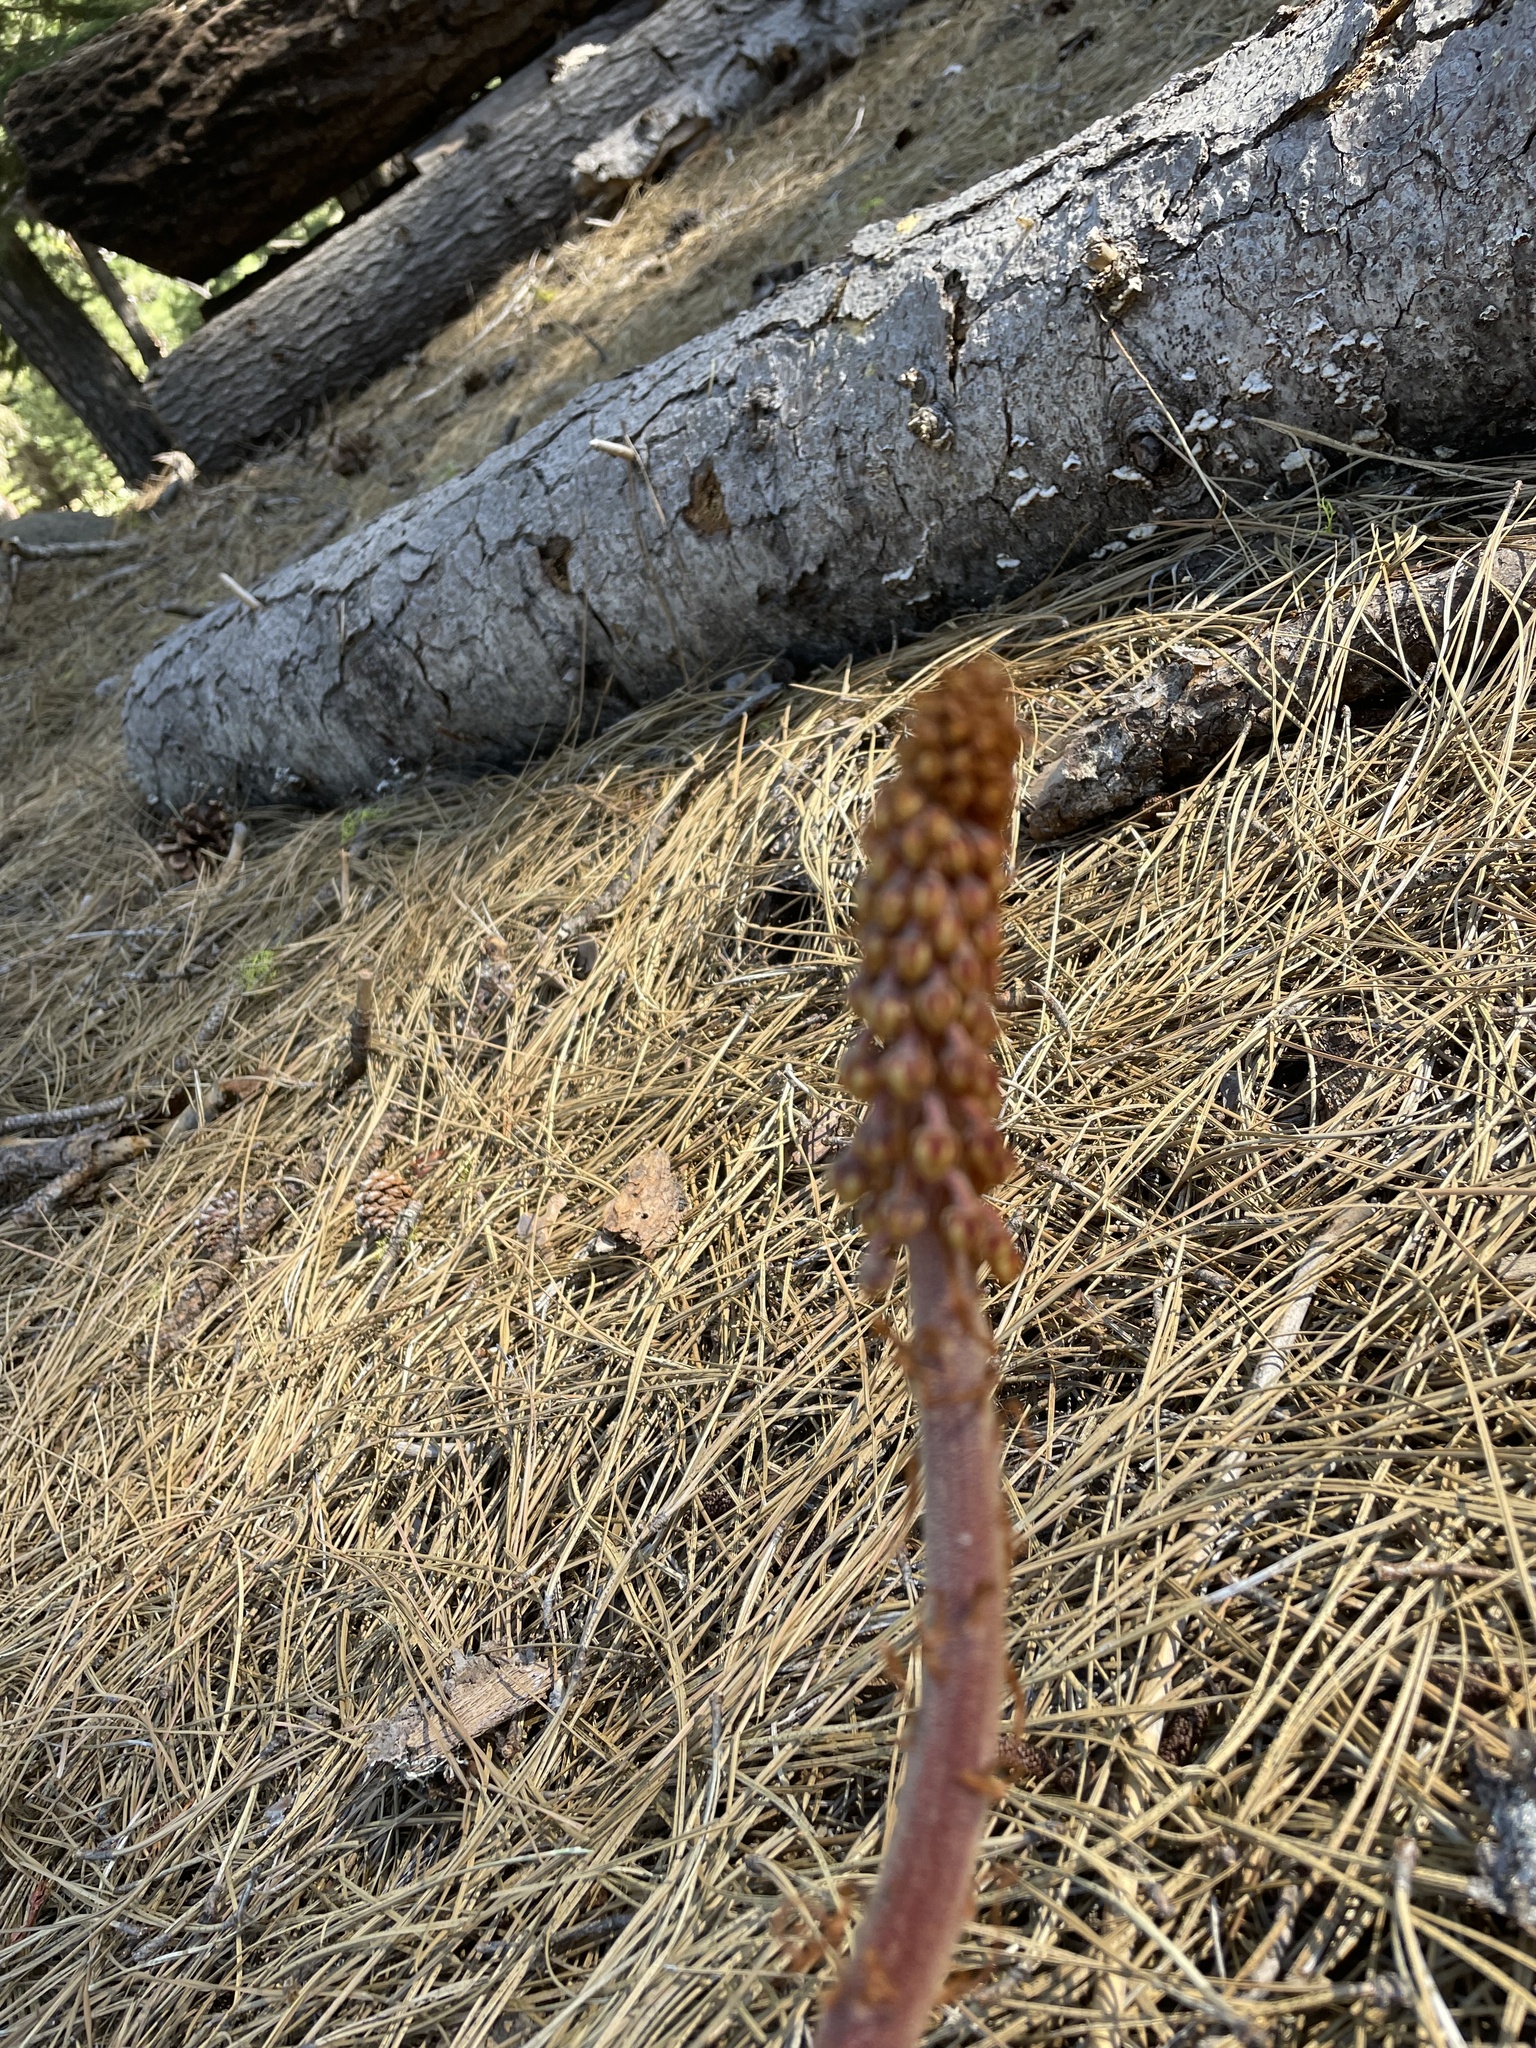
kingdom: Plantae
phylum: Tracheophyta
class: Magnoliopsida
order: Ericales
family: Ericaceae
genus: Pterospora
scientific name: Pterospora andromedea
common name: Giant bird's-nest
